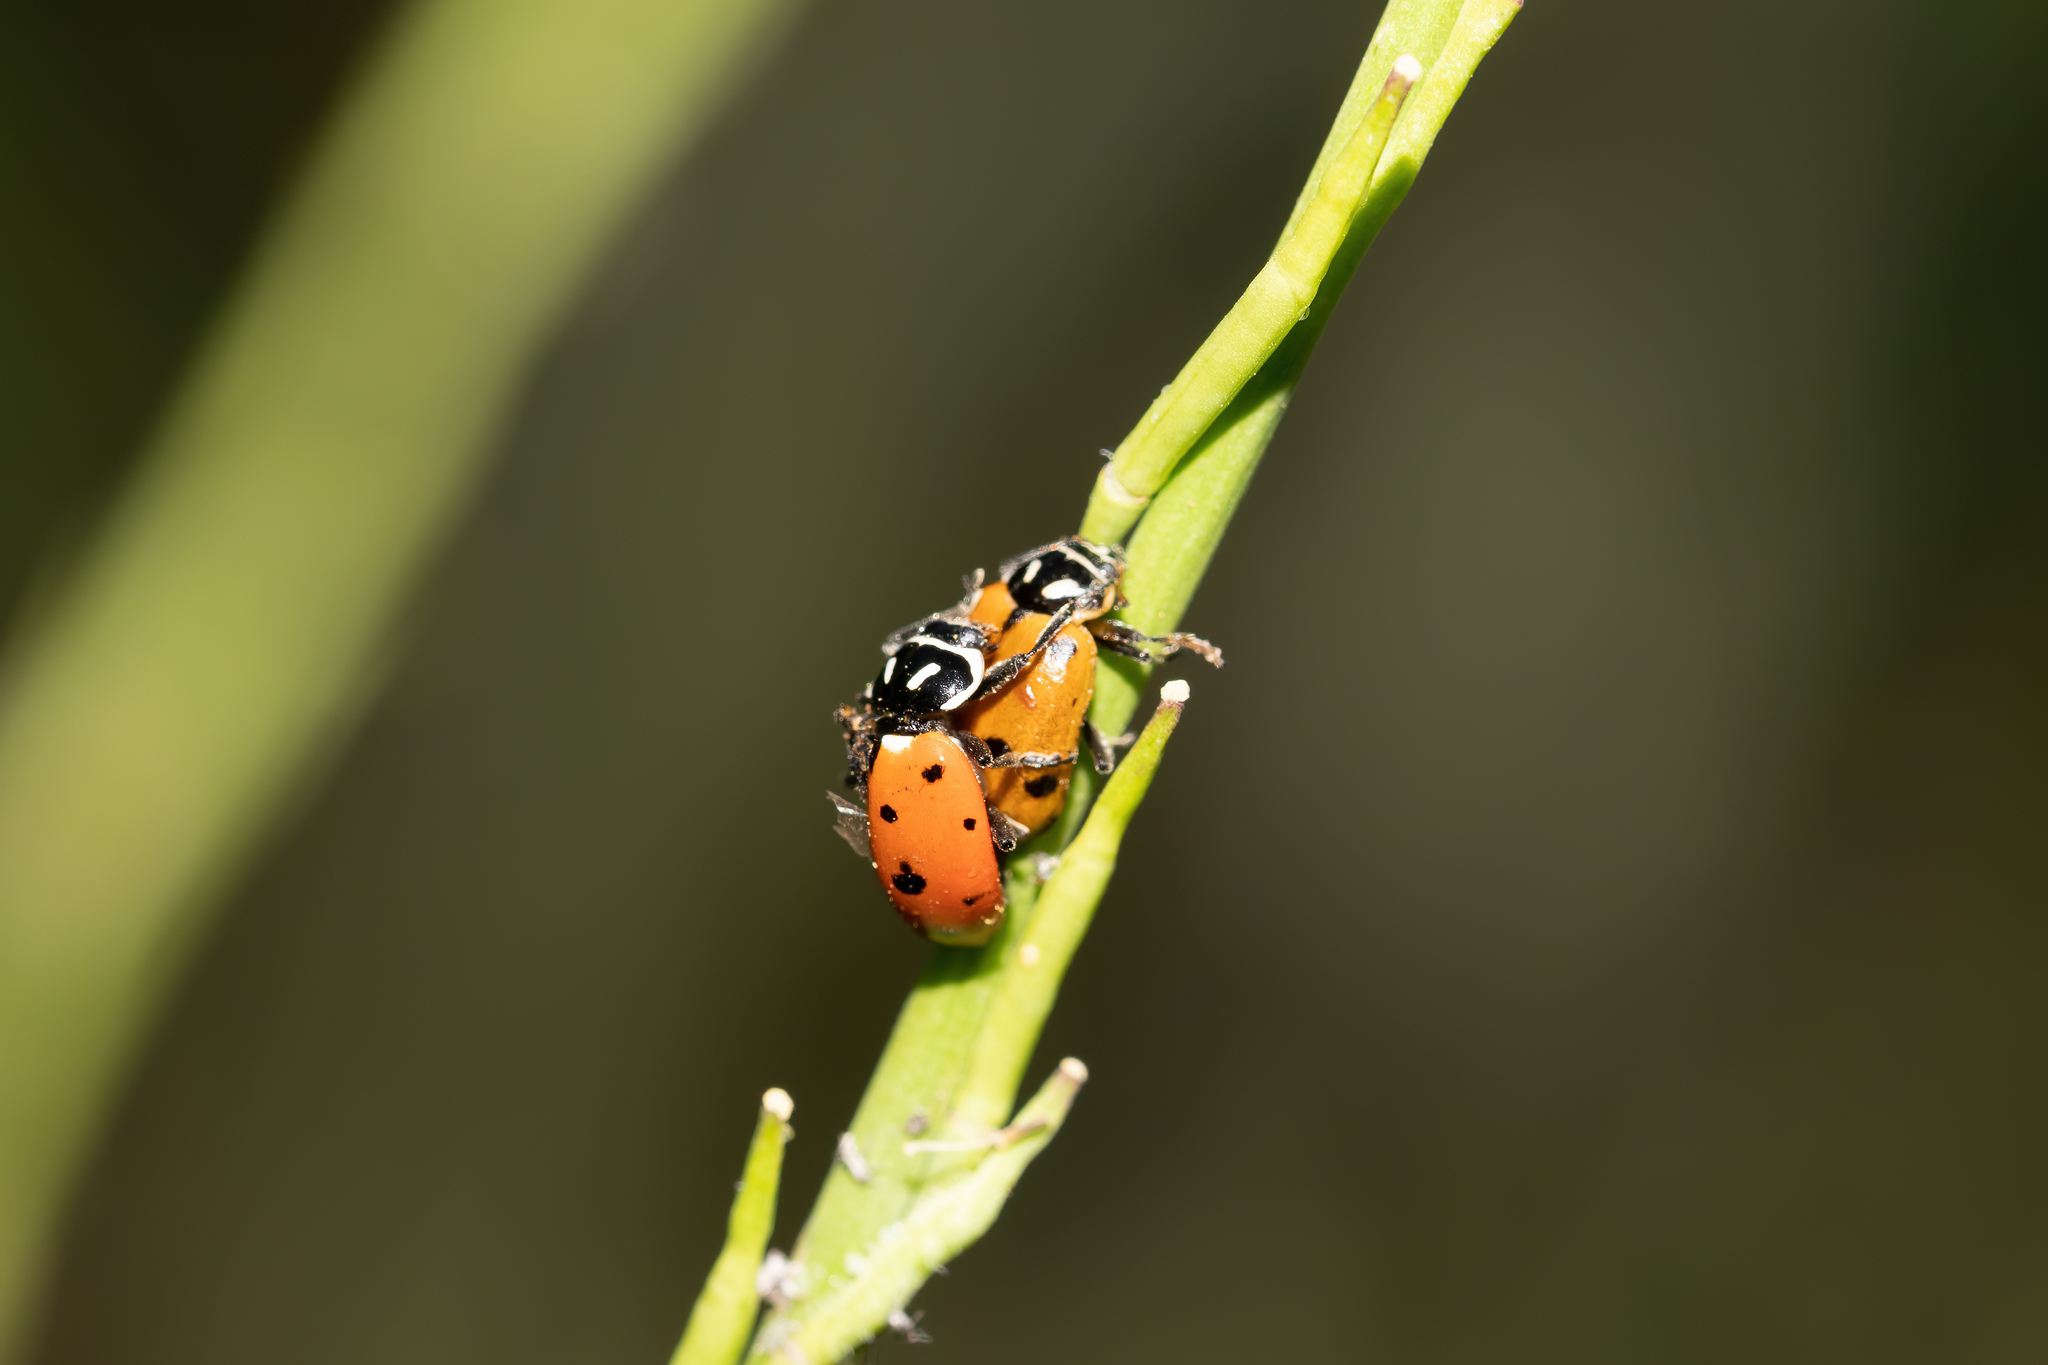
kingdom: Animalia
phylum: Arthropoda
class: Insecta
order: Coleoptera
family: Coccinellidae
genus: Hippodamia
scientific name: Hippodamia convergens
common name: Convergent lady beetle
